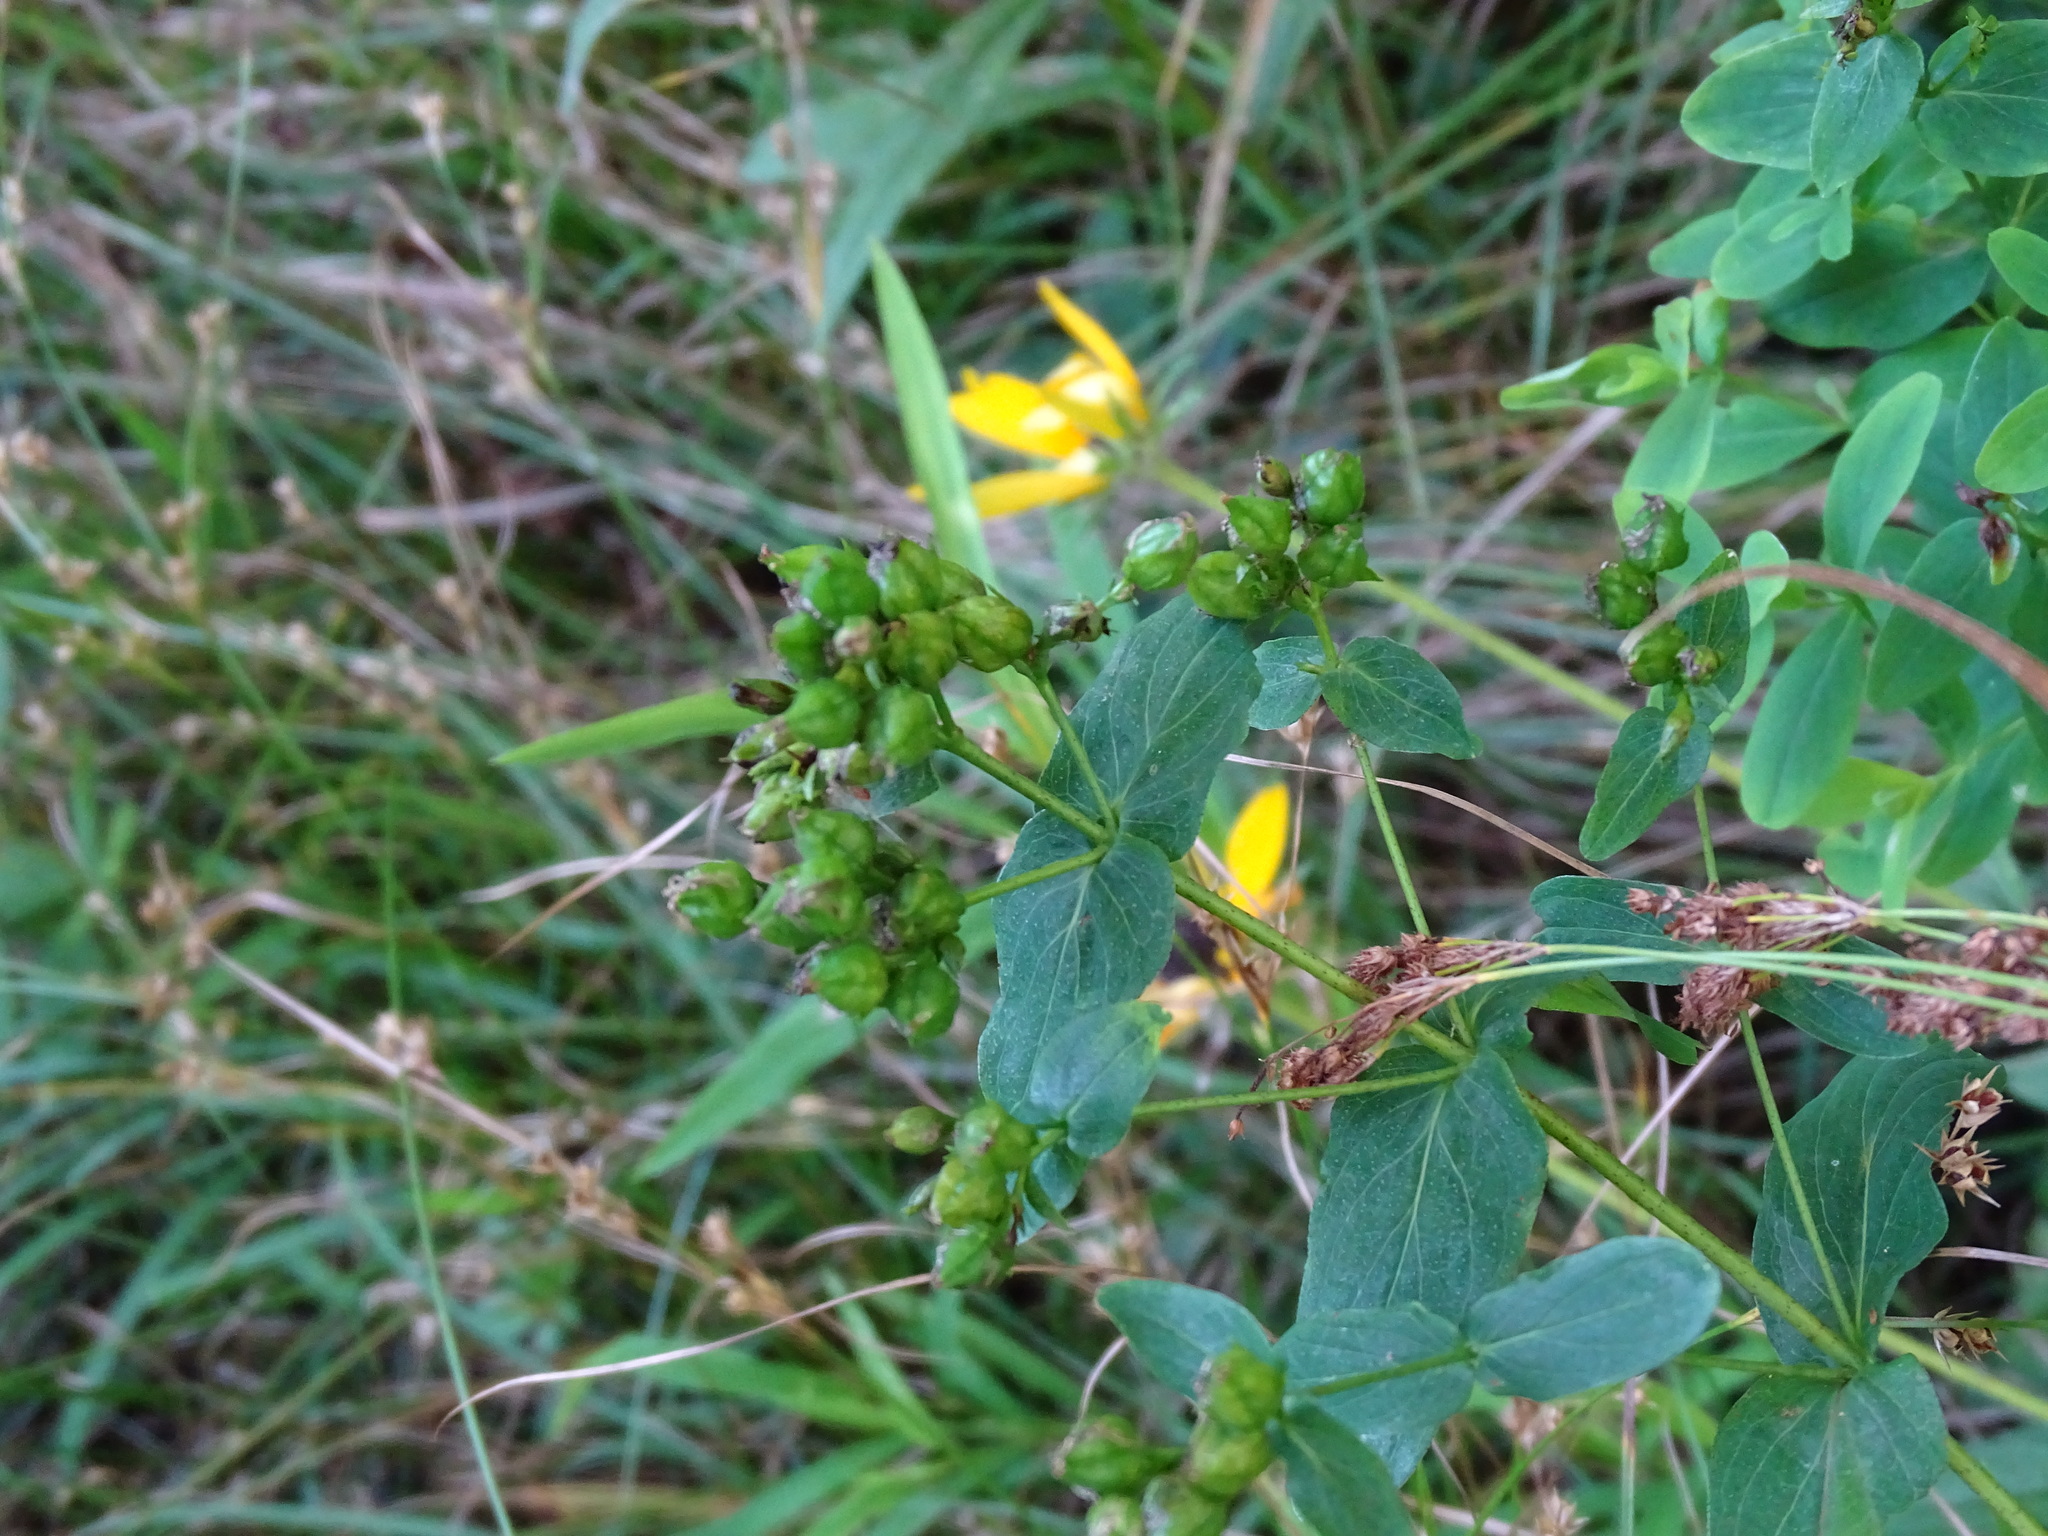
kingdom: Plantae
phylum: Tracheophyta
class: Magnoliopsida
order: Malpighiales
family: Hypericaceae
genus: Hypericum
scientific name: Hypericum punctatum
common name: Spotted st. john's-wort
